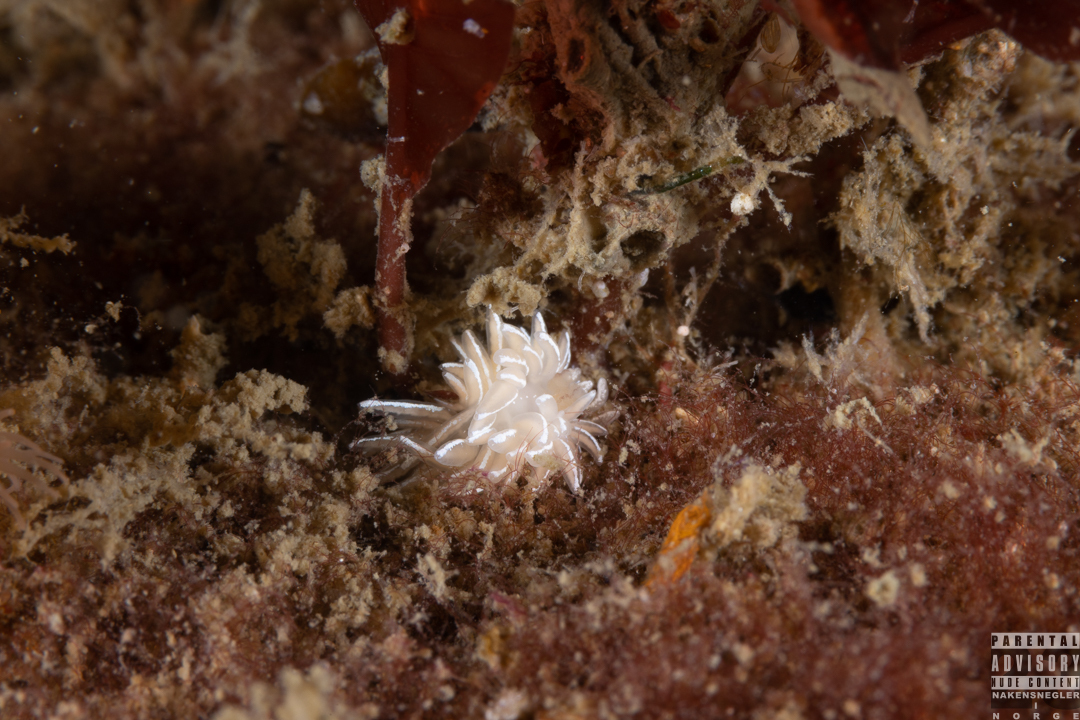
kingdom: Animalia
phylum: Mollusca
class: Gastropoda
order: Nudibranchia
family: Facelinidae
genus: Favorinus
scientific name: Favorinus blianus
